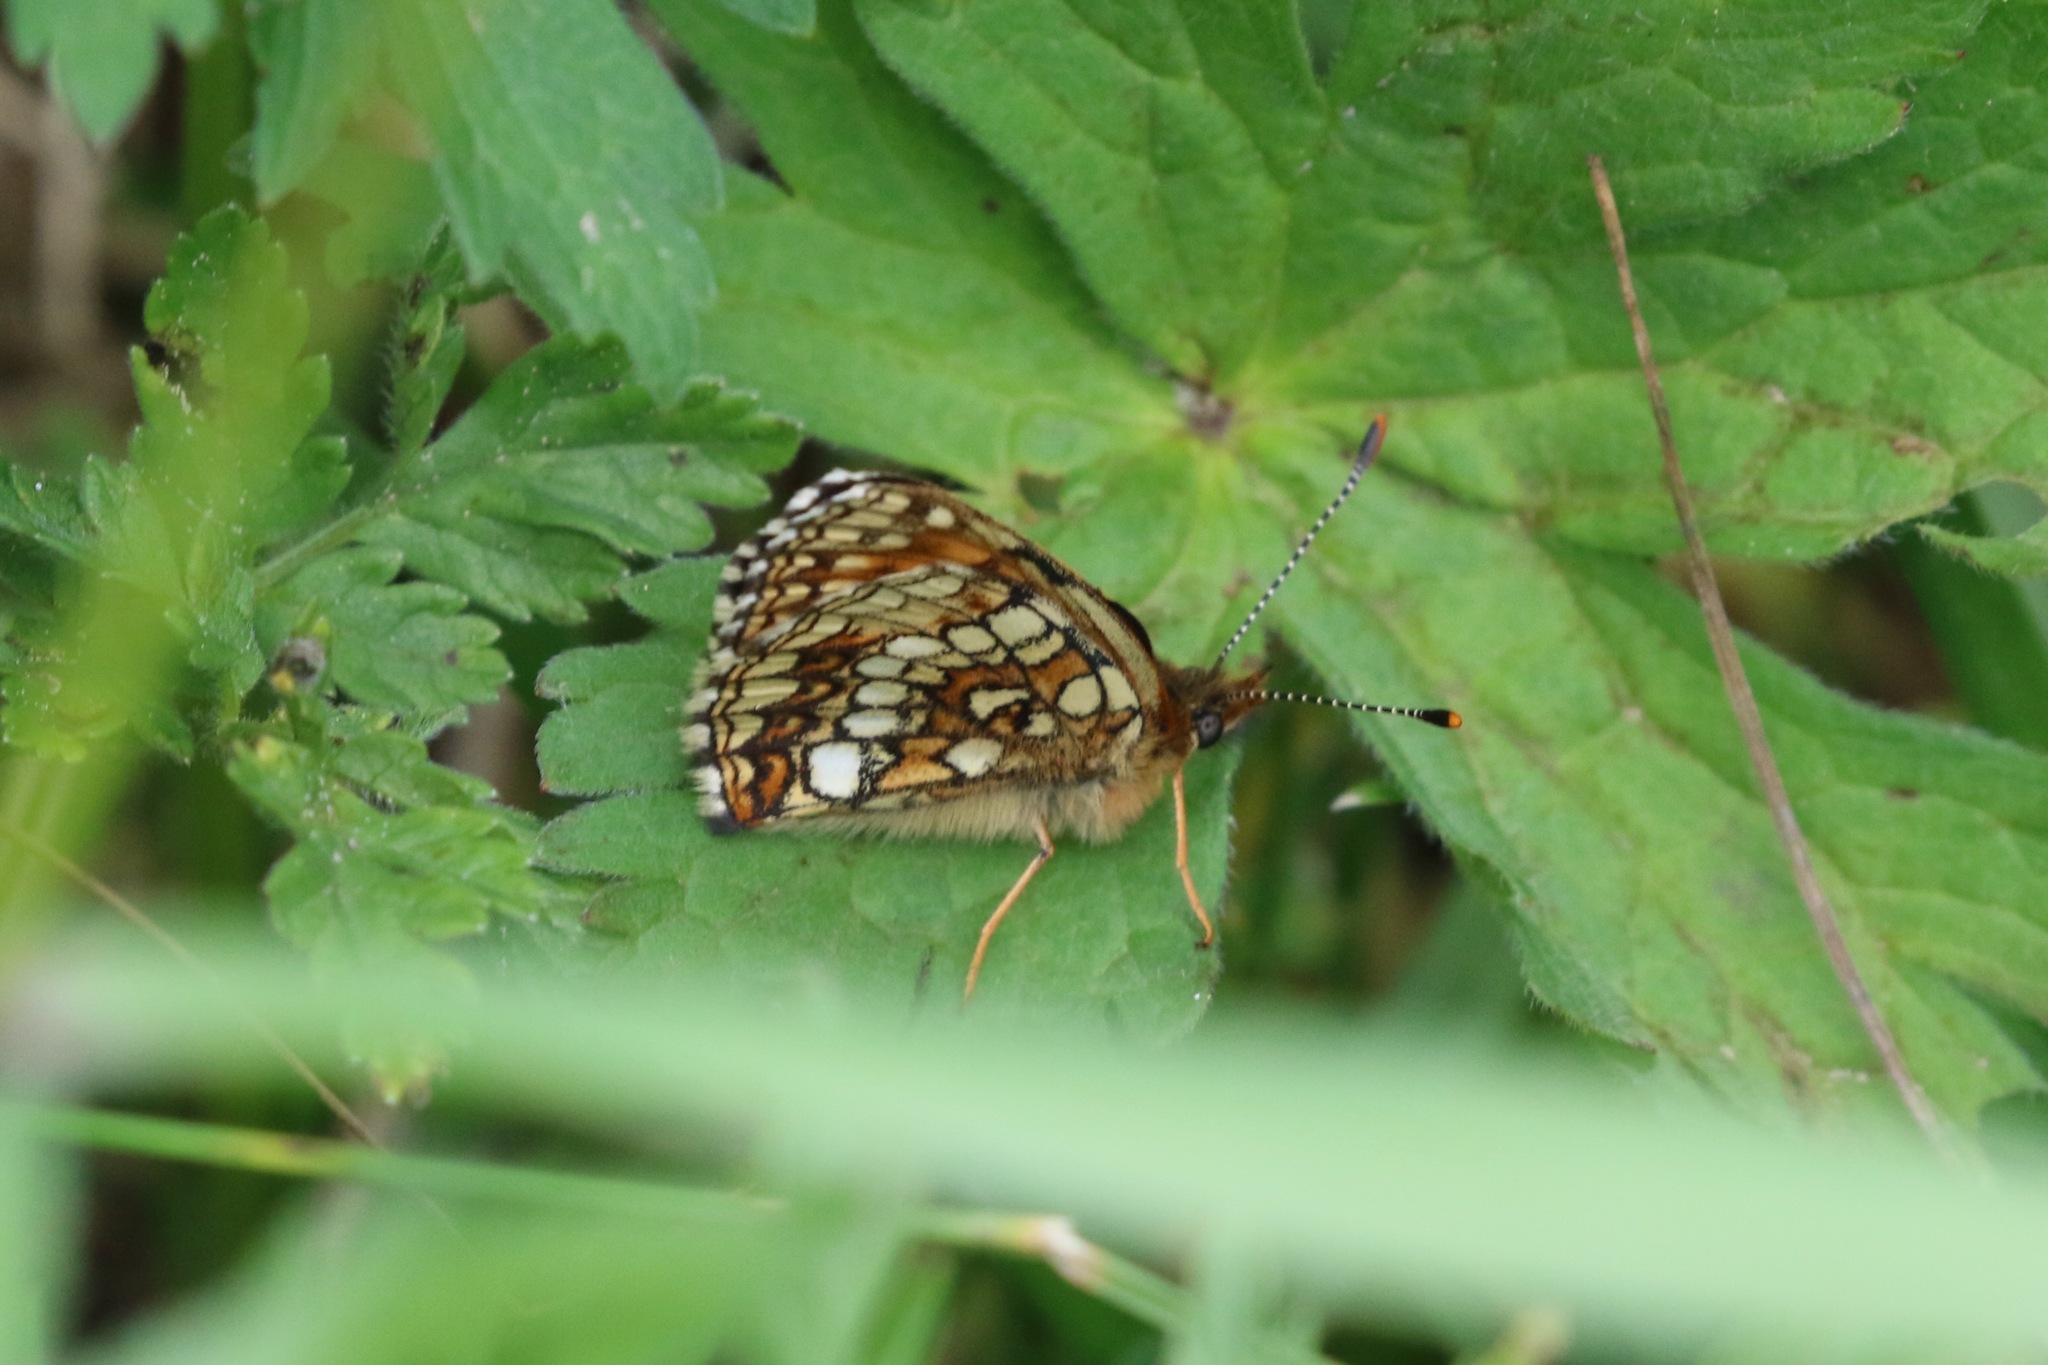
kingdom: Animalia
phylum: Arthropoda
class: Insecta
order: Lepidoptera
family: Nymphalidae
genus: Melitaea
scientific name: Melitaea diamina
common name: False heath fritillary
